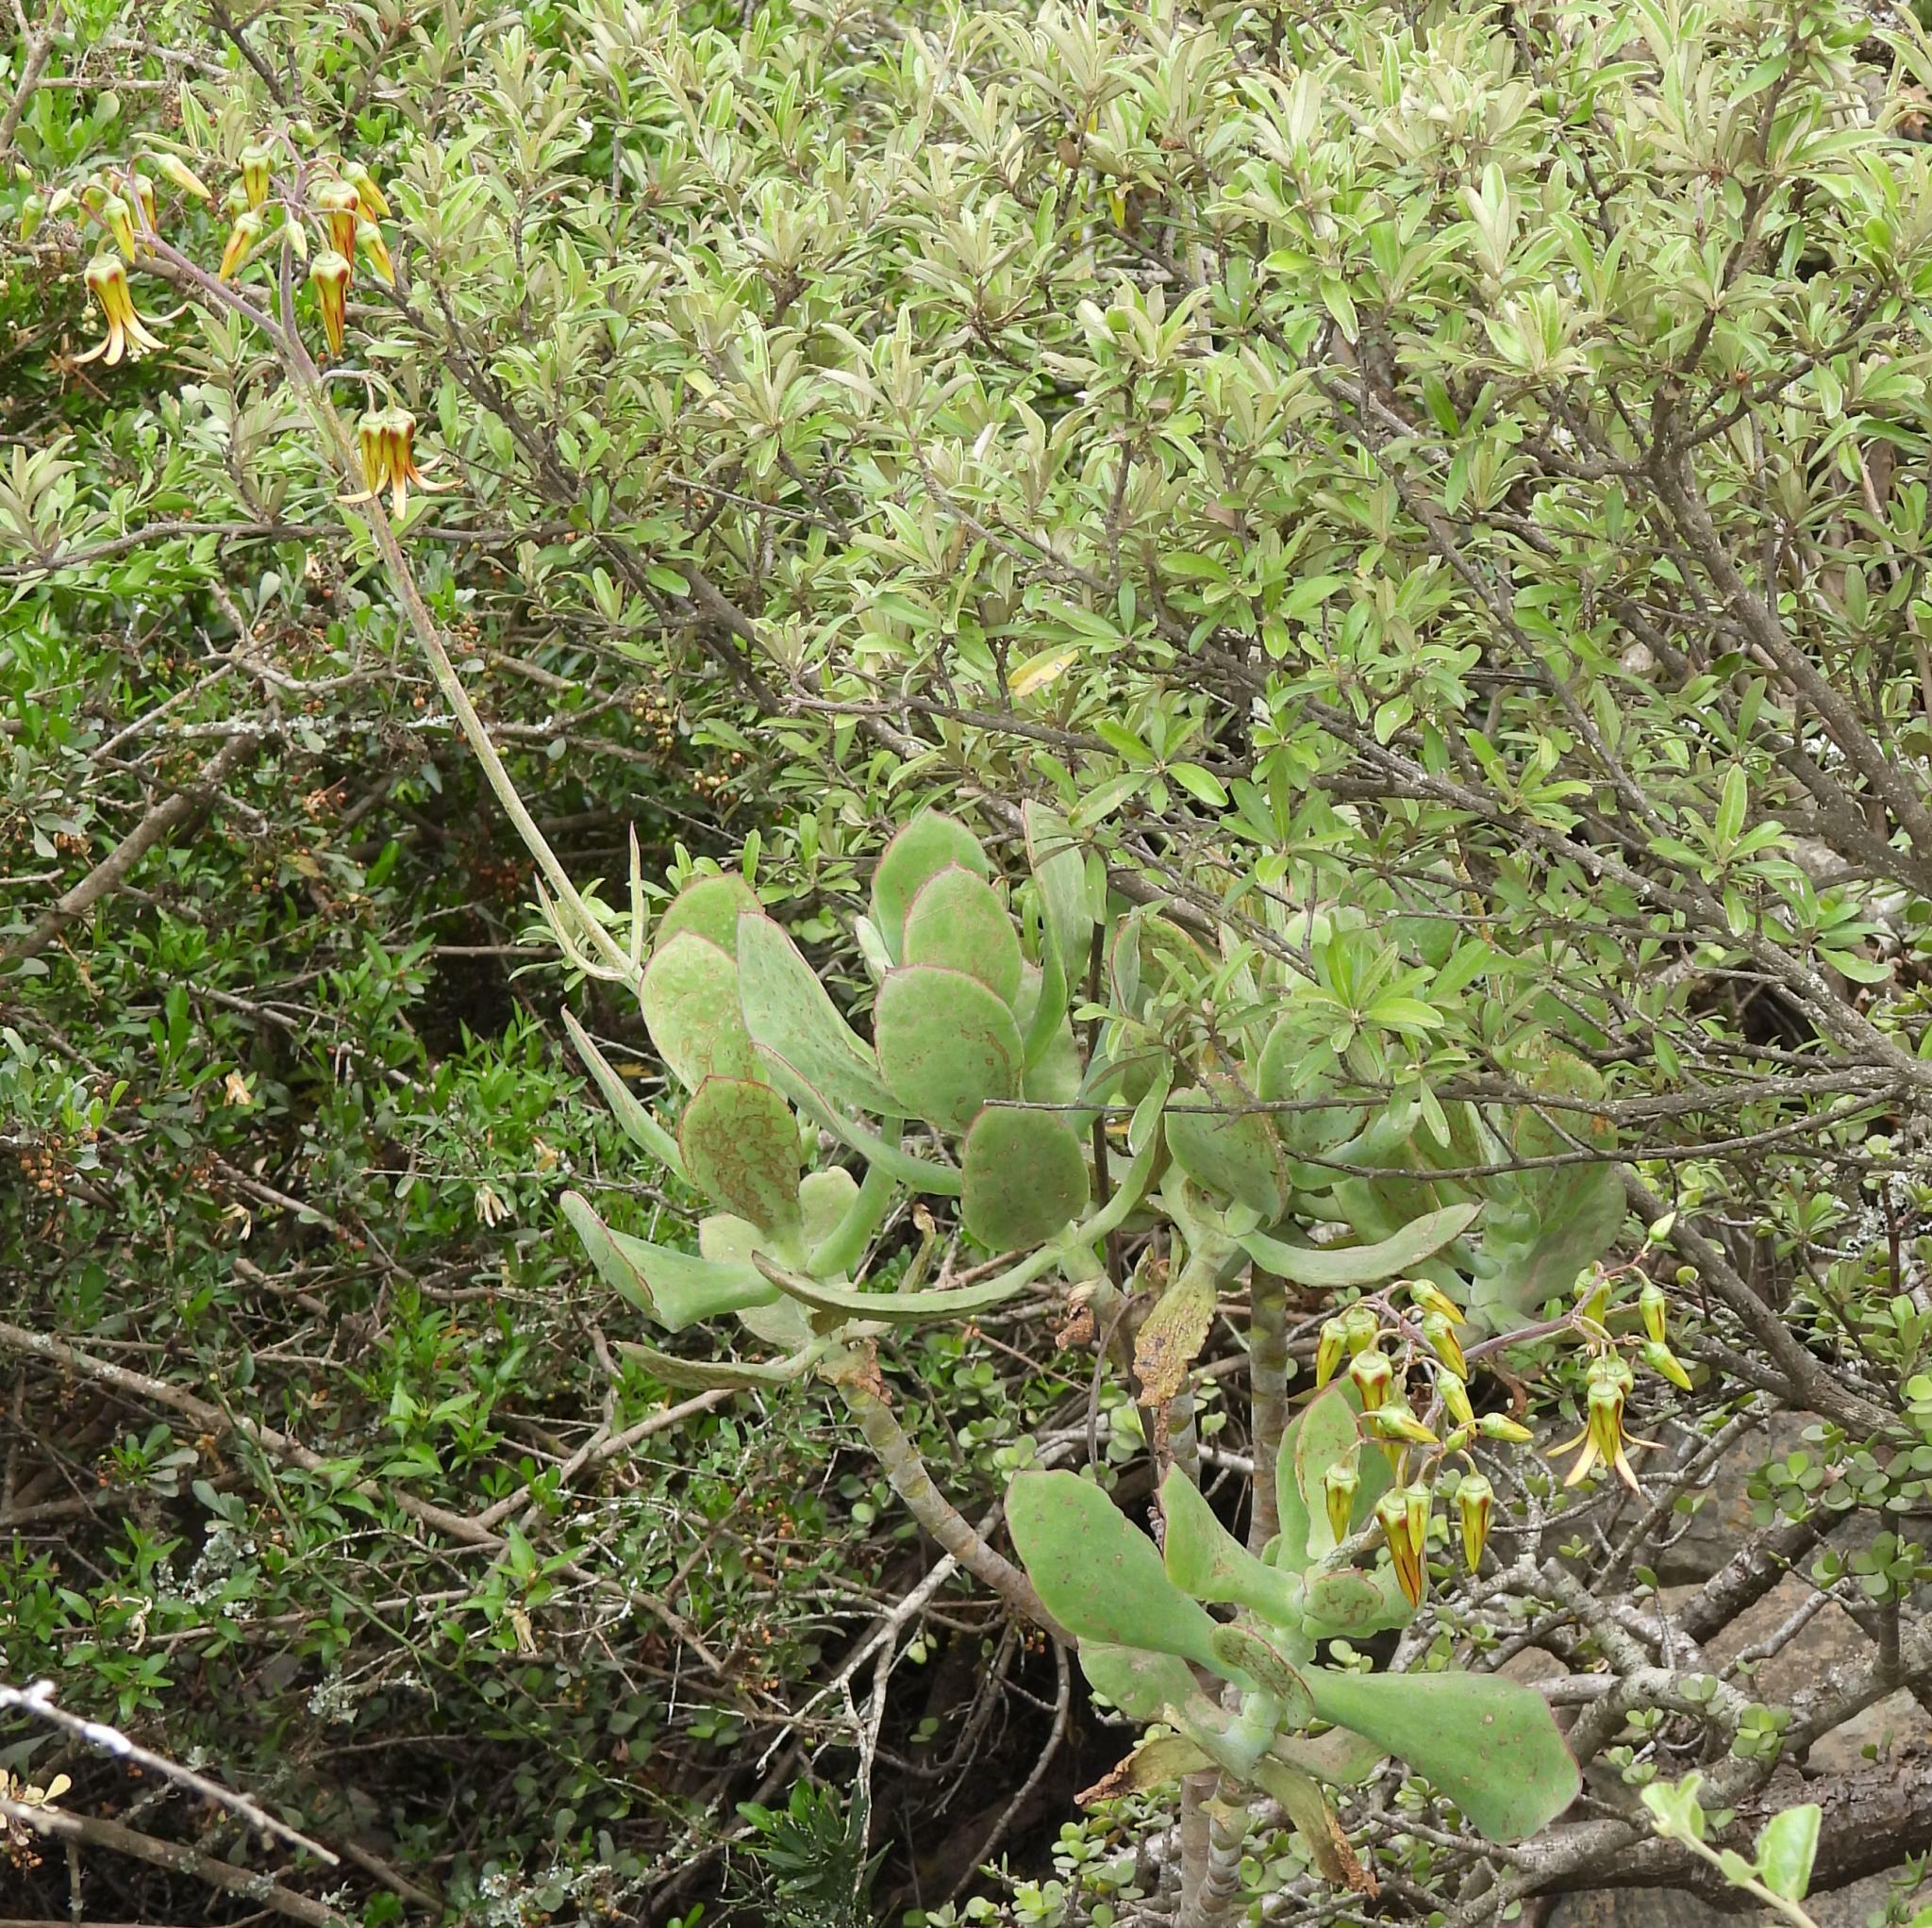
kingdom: Plantae
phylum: Tracheophyta
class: Magnoliopsida
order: Saxifragales
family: Crassulaceae
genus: Cotyledon
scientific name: Cotyledon velutina
